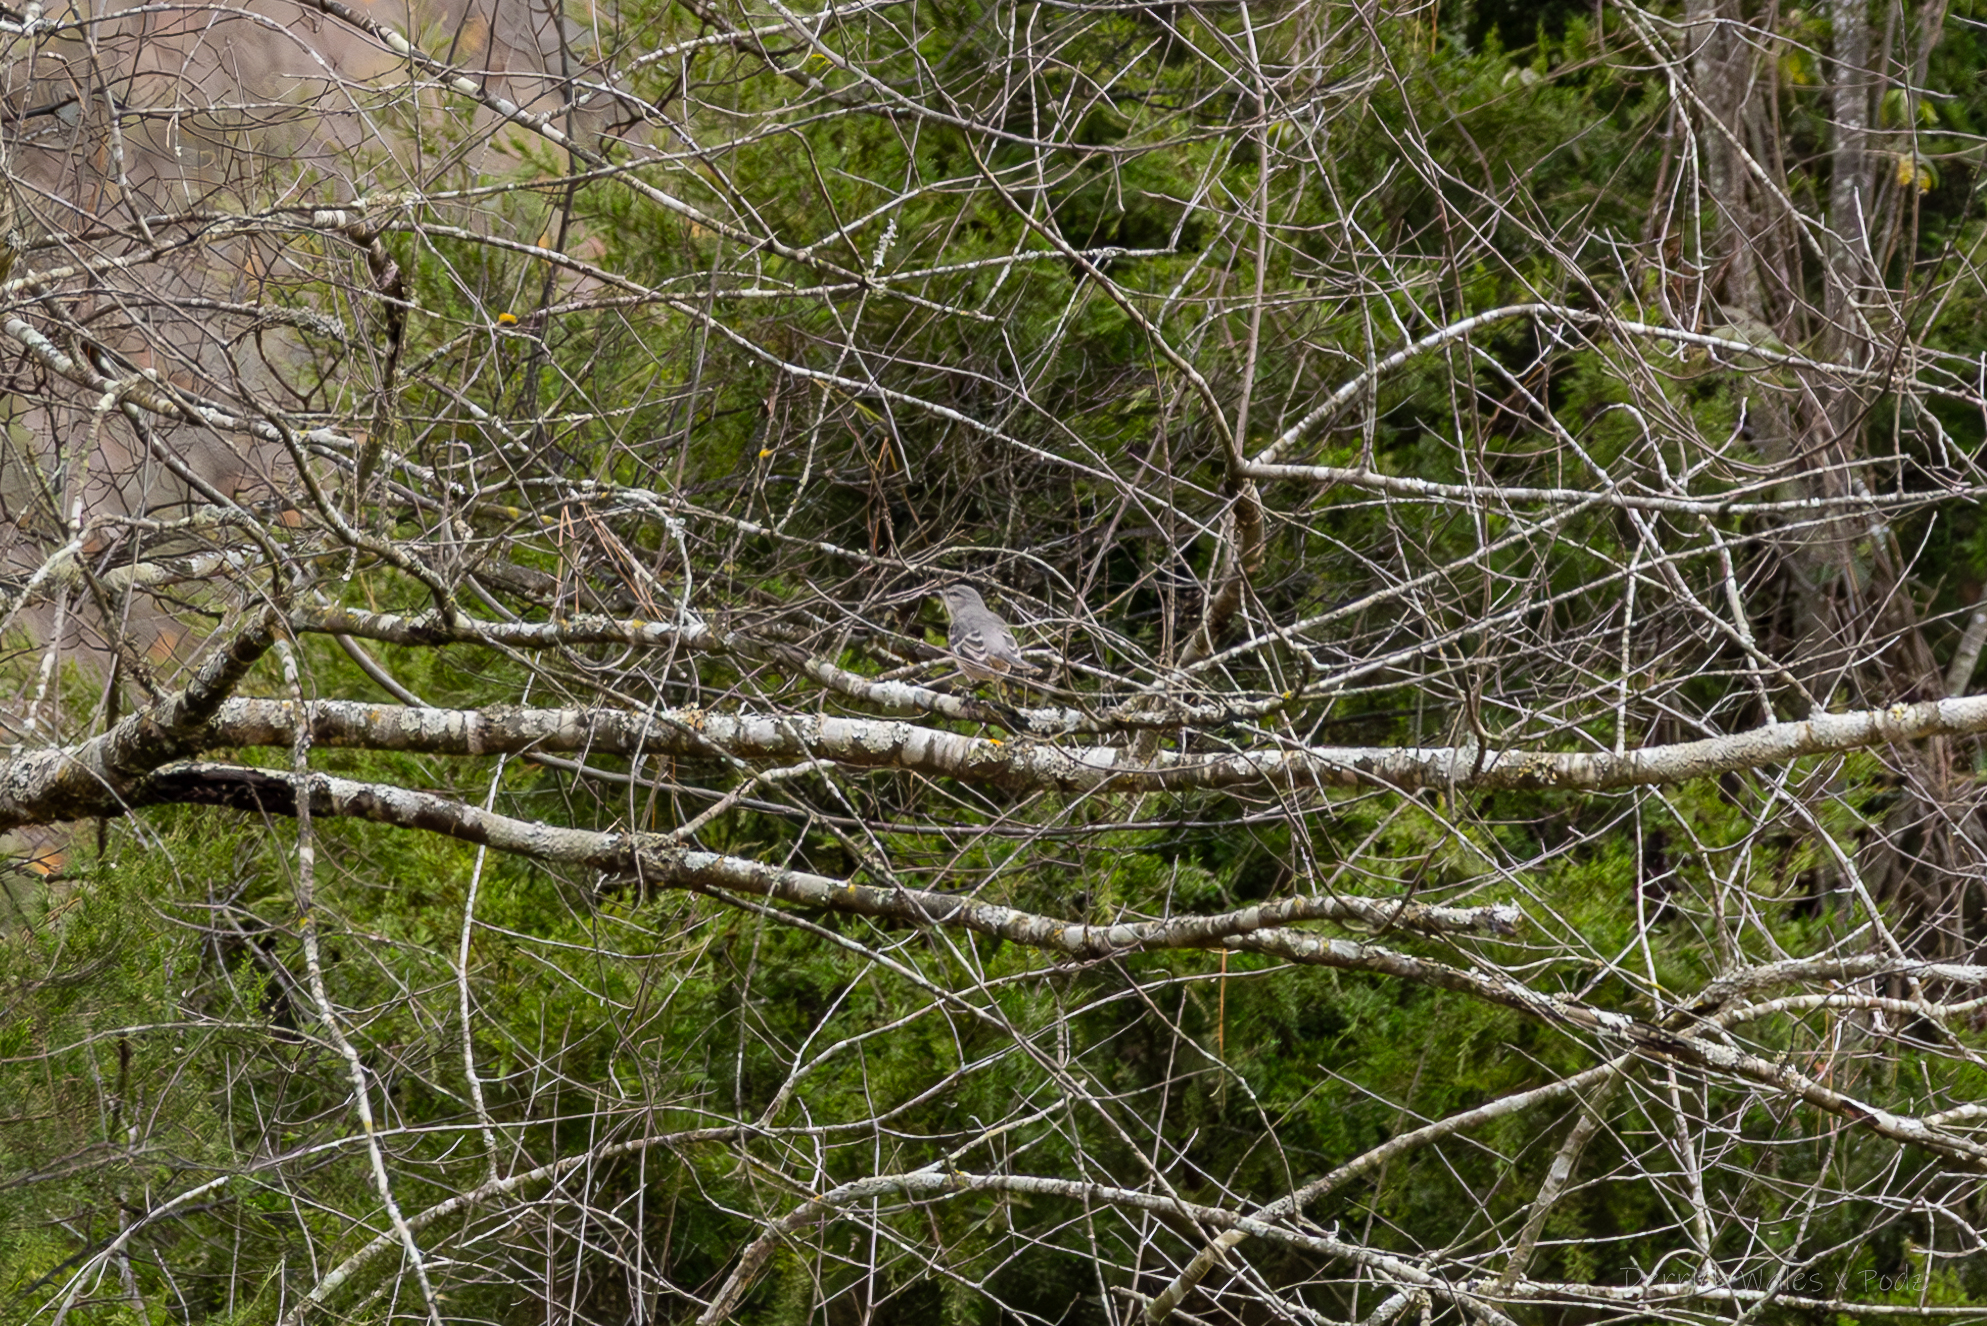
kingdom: Animalia
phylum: Chordata
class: Aves
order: Passeriformes
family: Mimidae
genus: Mimus
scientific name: Mimus polyglottos
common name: Northern mockingbird
